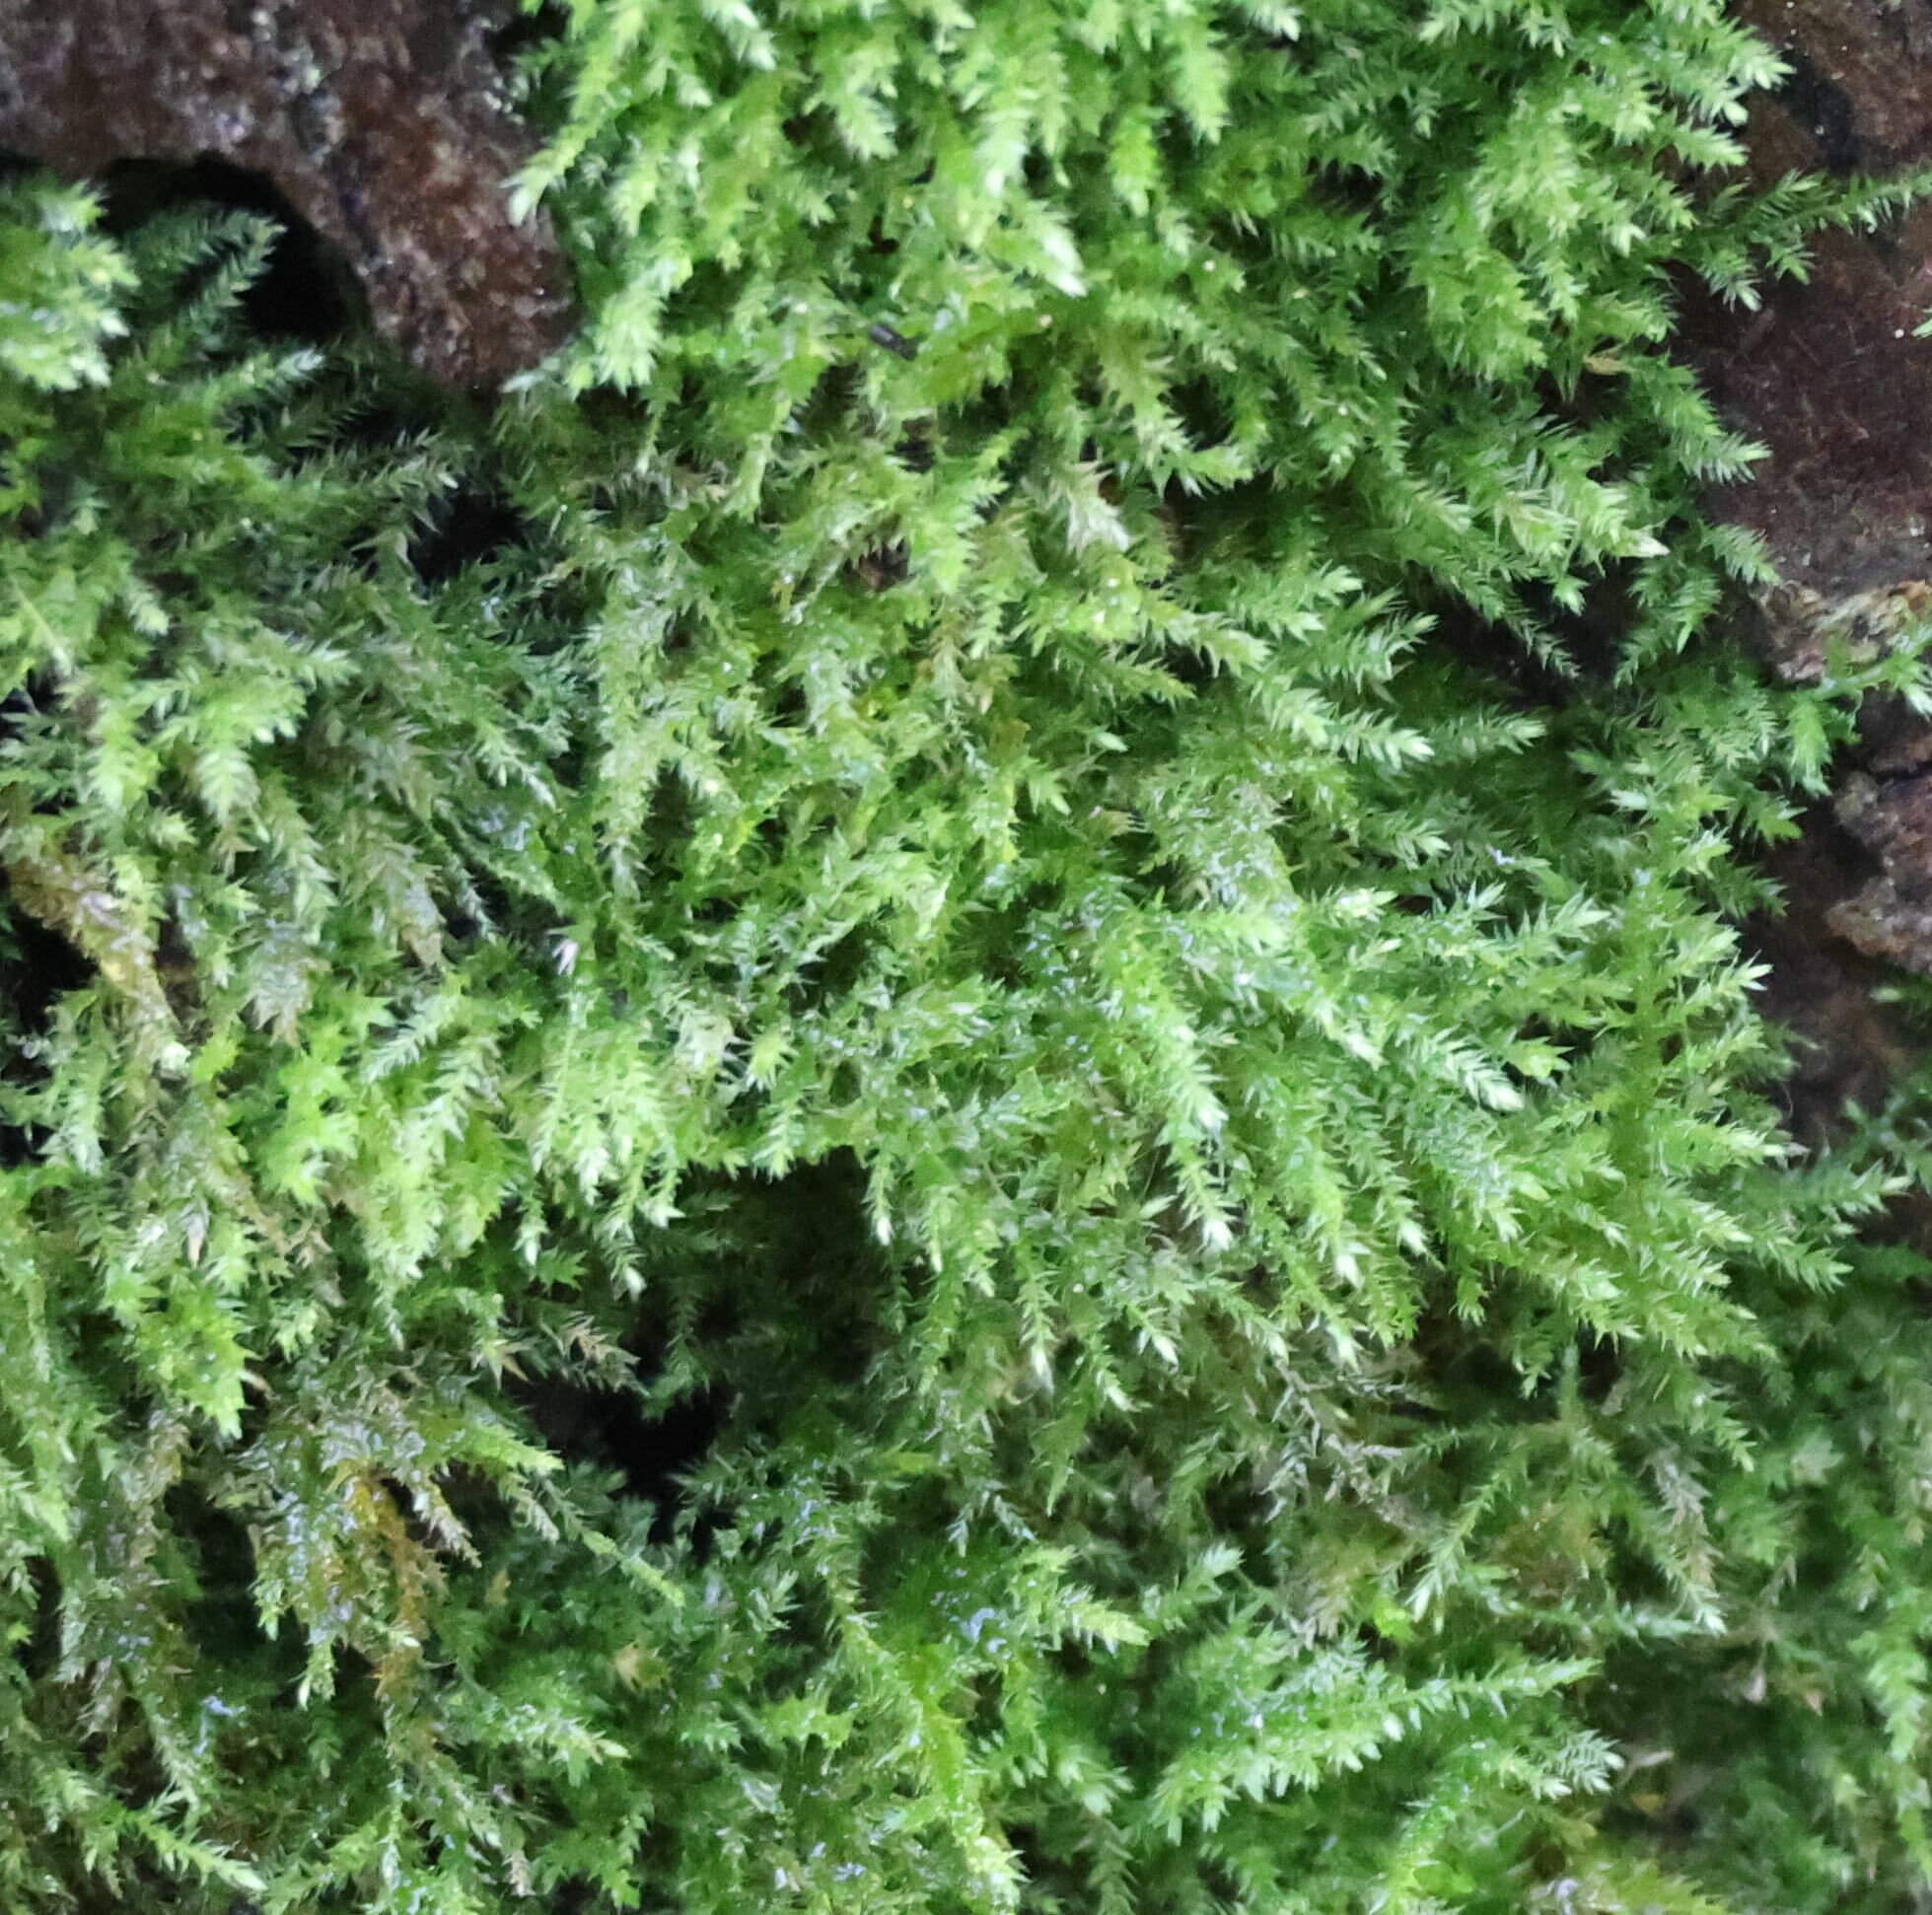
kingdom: Plantae
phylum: Bryophyta
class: Bryopsida
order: Hypnales
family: Brachytheciaceae
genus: Oxyrrhynchium
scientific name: Oxyrrhynchium hians
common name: Spreading beaked moss
